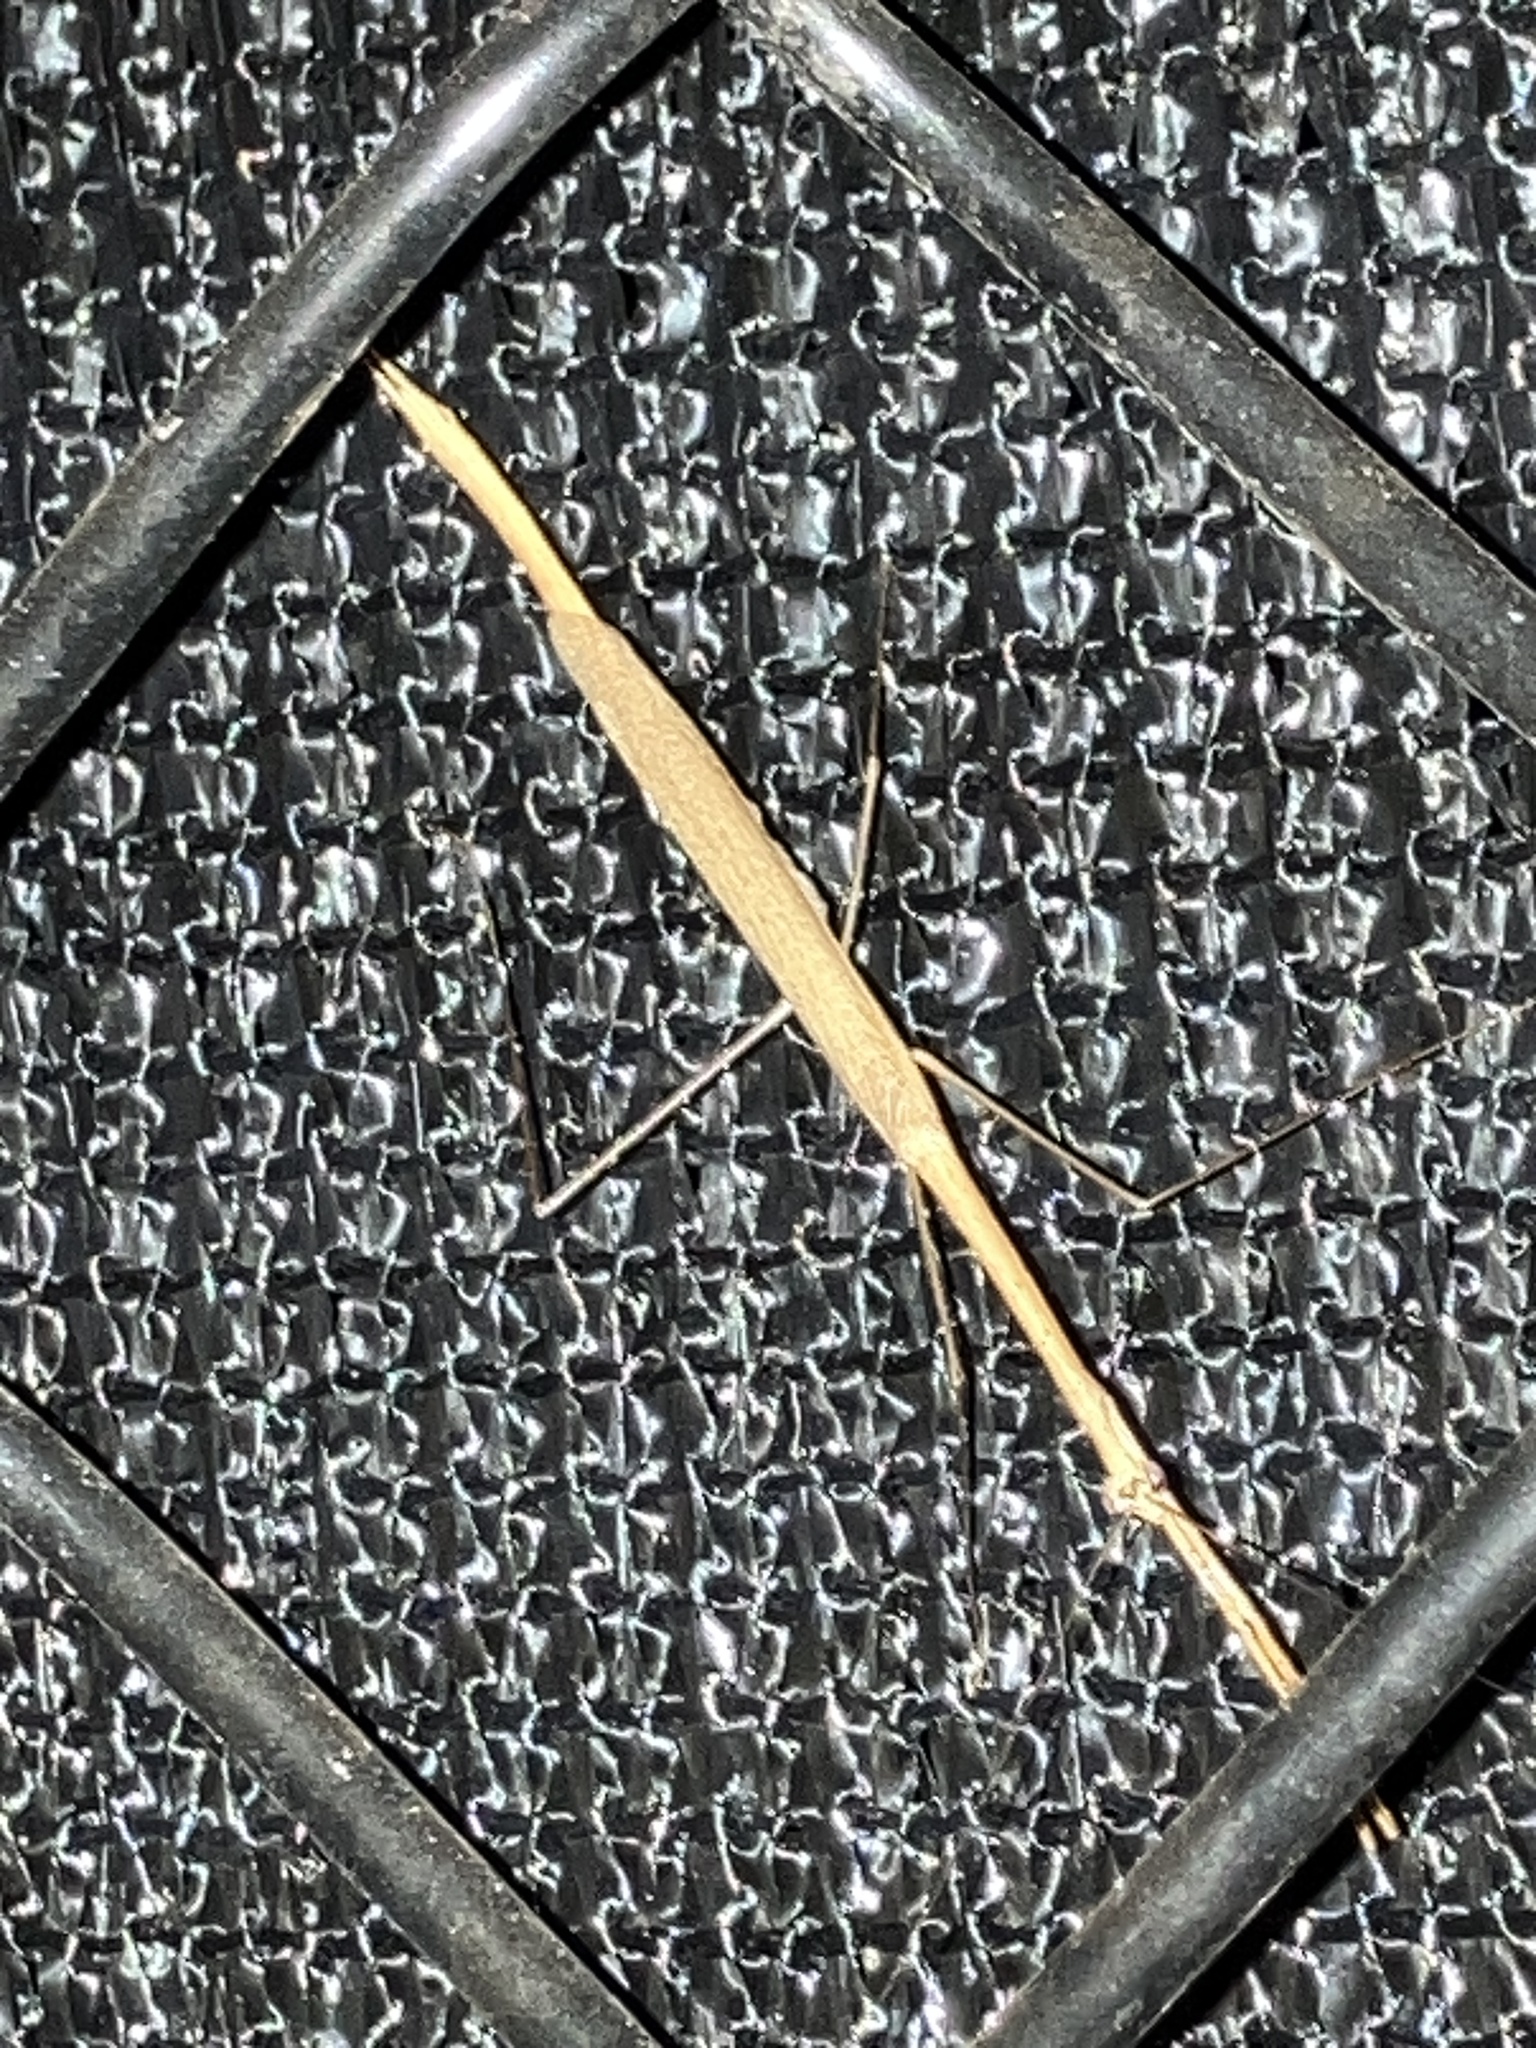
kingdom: Animalia
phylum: Arthropoda
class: Insecta
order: Mantodea
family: Thespidae
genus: Thesprotia
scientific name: Thesprotia graminis
